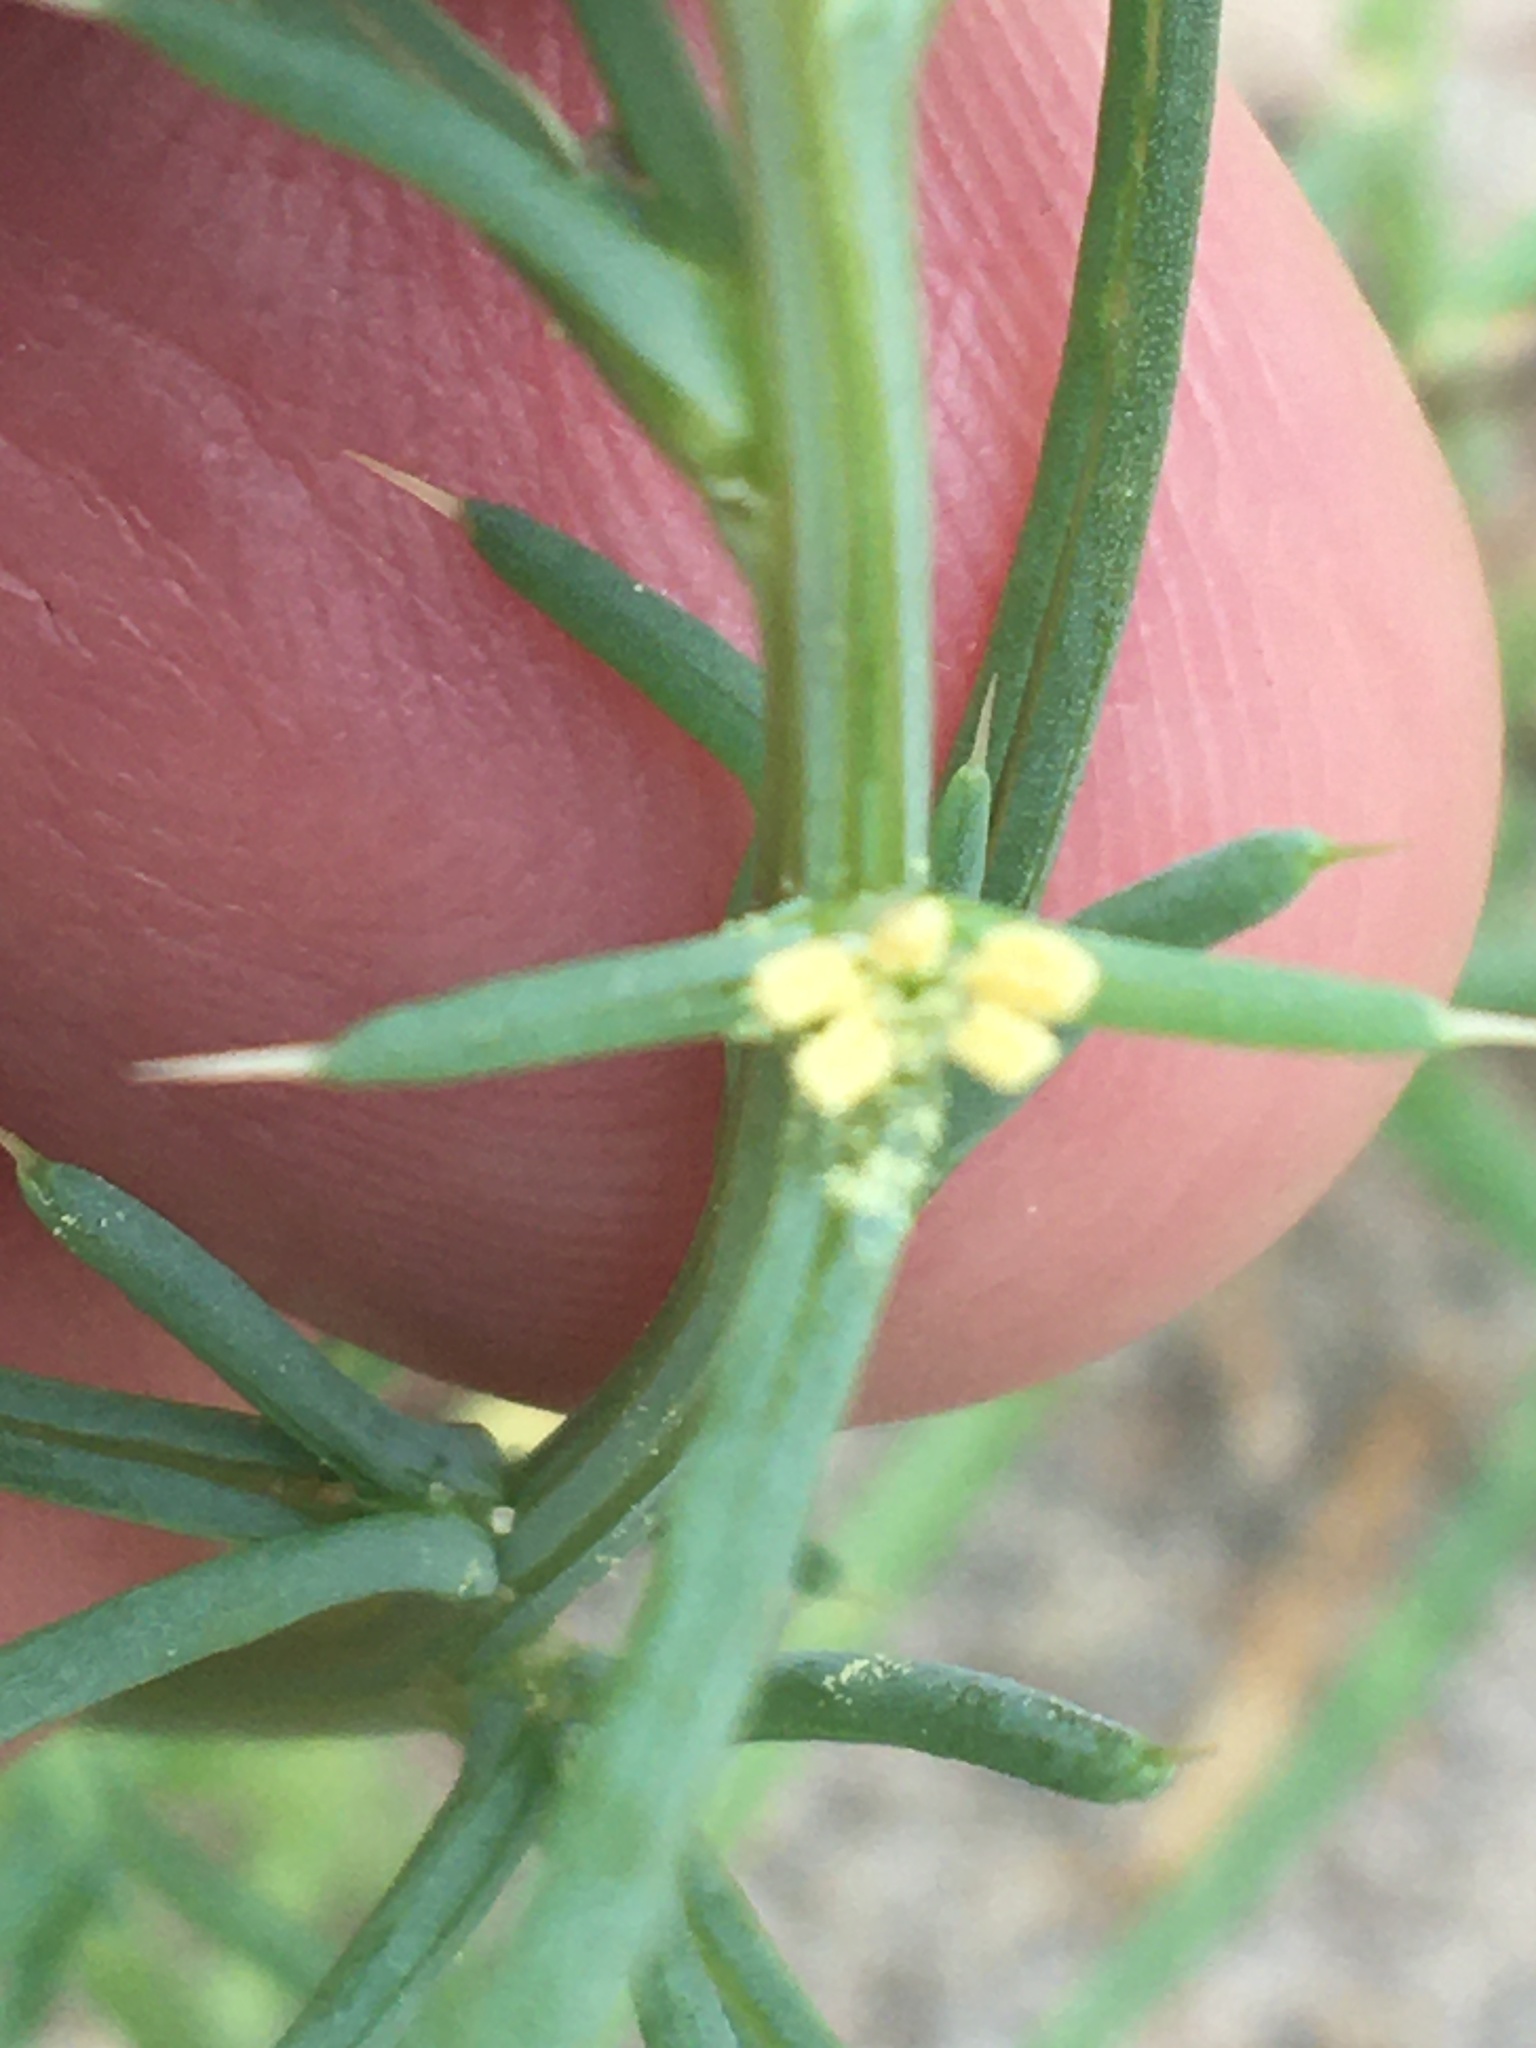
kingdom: Plantae
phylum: Tracheophyta
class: Magnoliopsida
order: Caryophyllales
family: Amaranthaceae
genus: Salsola
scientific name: Salsola kali
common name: Saltwort
